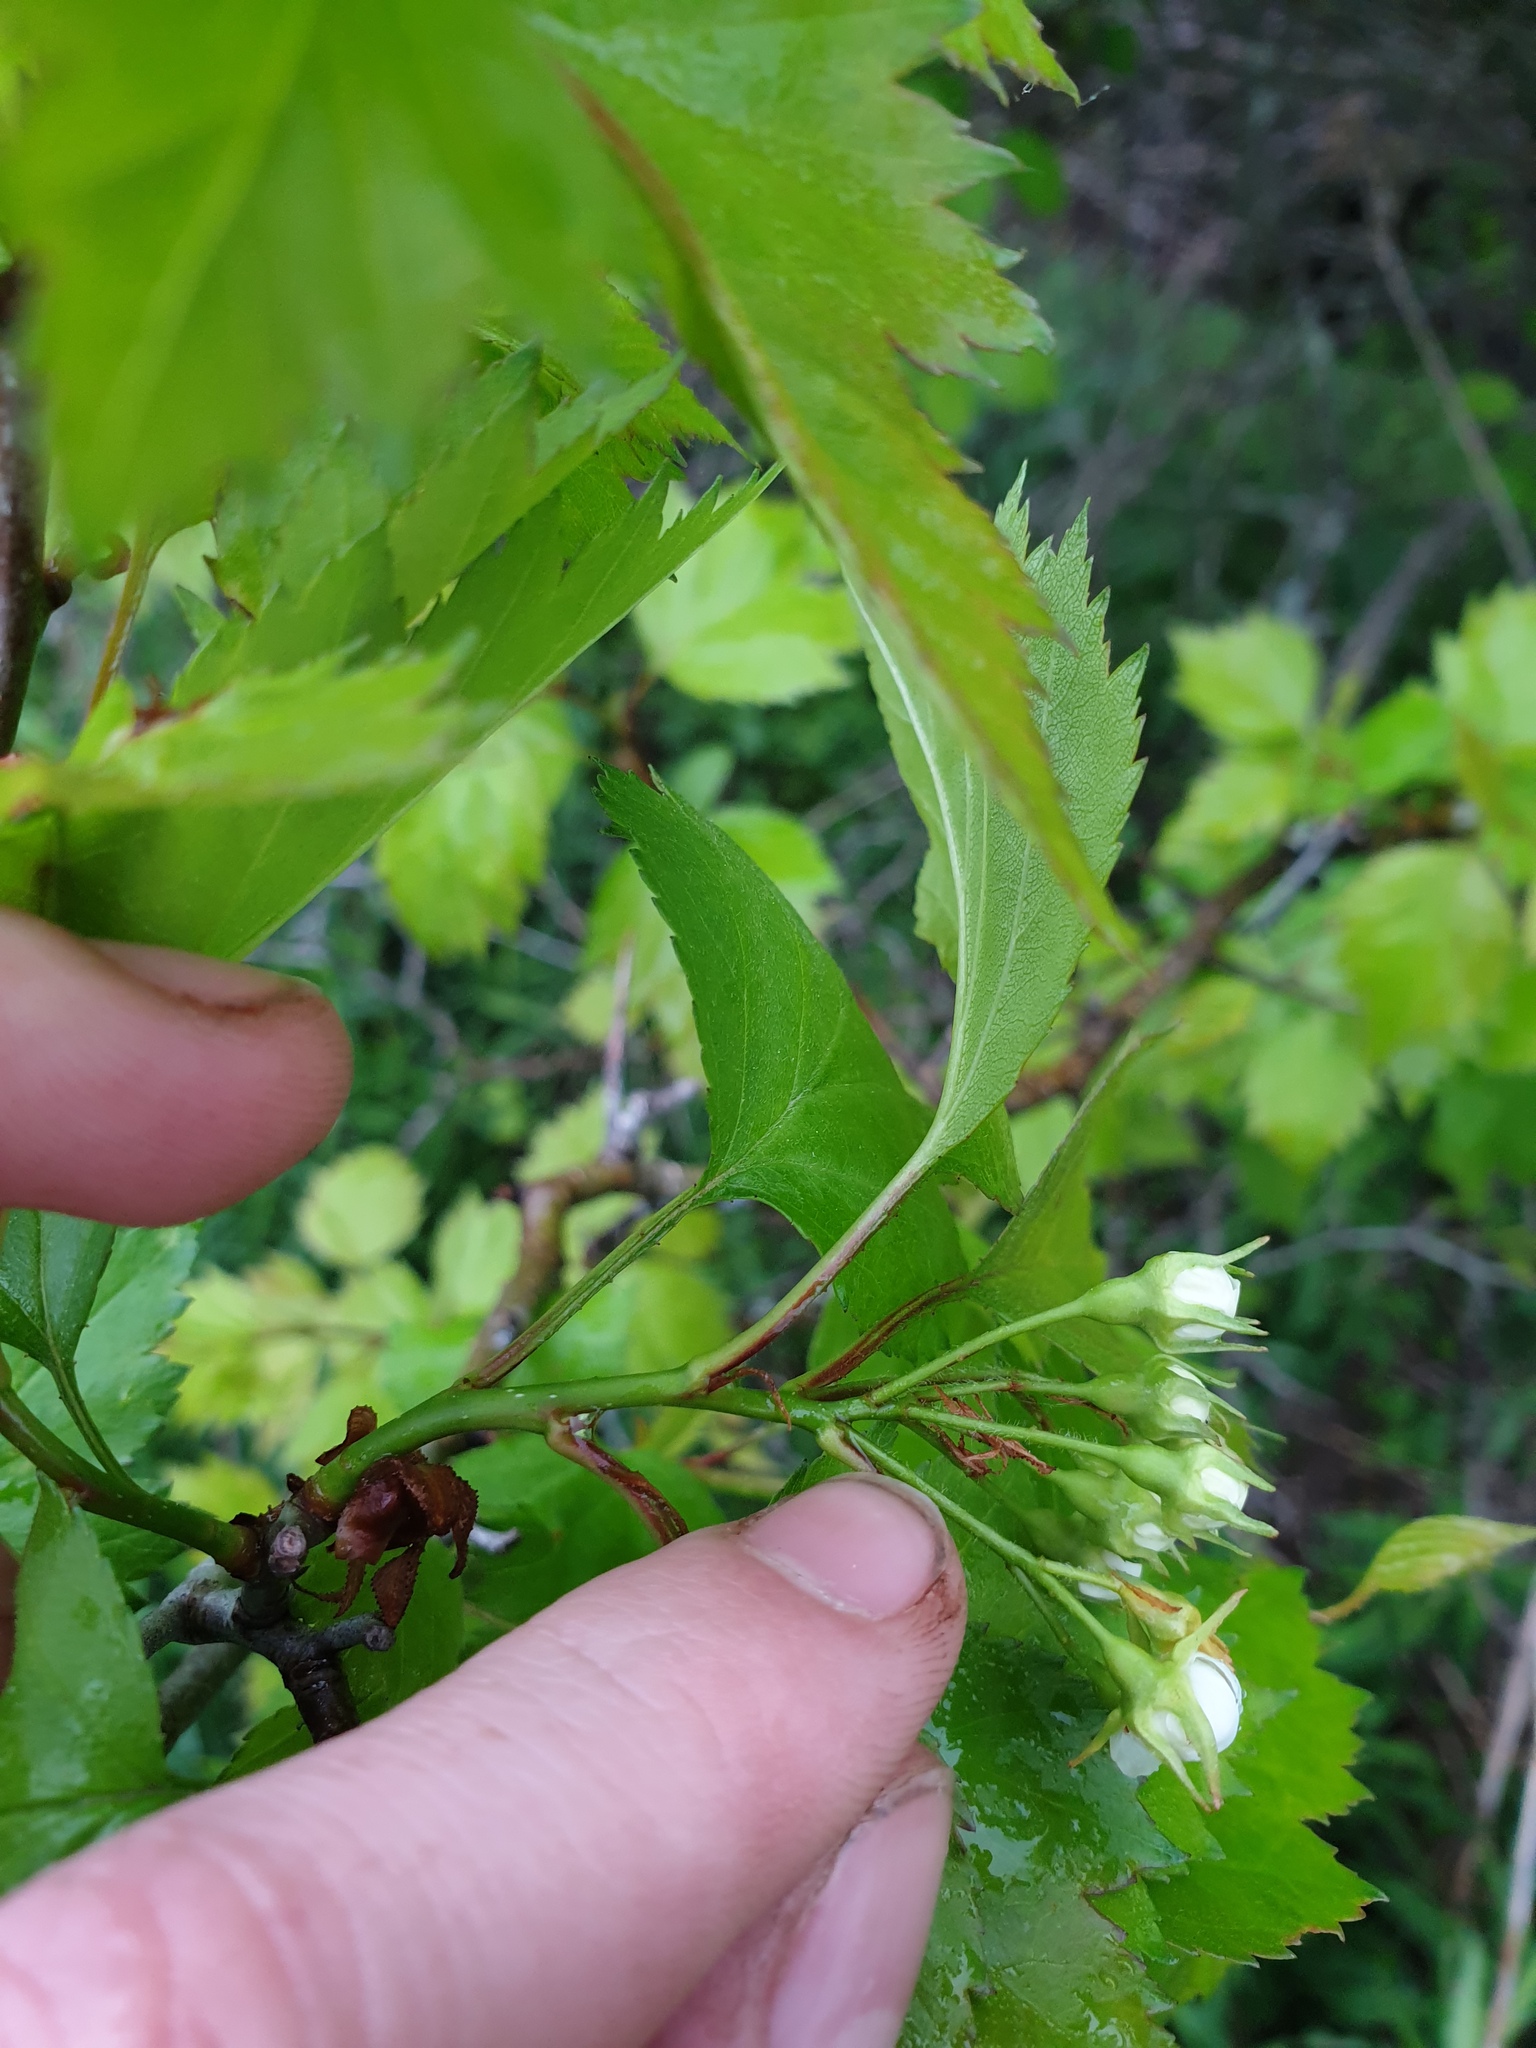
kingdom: Plantae
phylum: Tracheophyta
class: Magnoliopsida
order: Rosales
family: Rosaceae
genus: Crataegus
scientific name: Crataegus fluviatilis
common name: Fort sheridan hawthorn
